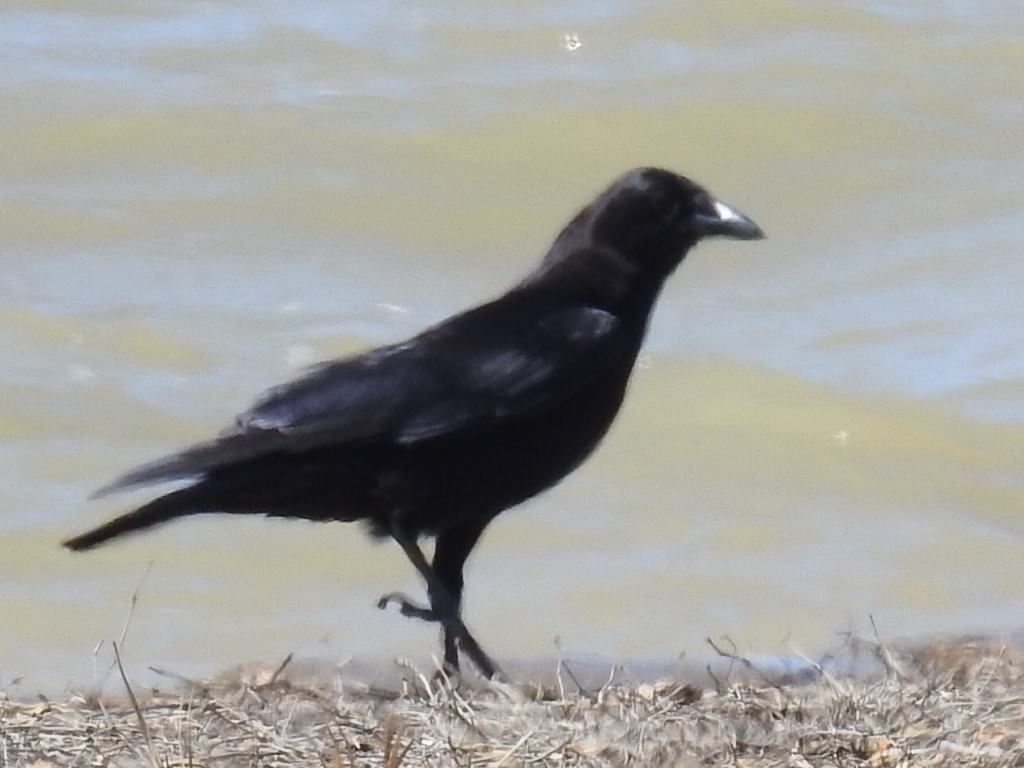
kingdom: Animalia
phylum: Chordata
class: Aves
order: Passeriformes
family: Corvidae
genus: Corvus
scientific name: Corvus brachyrhynchos
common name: American crow
